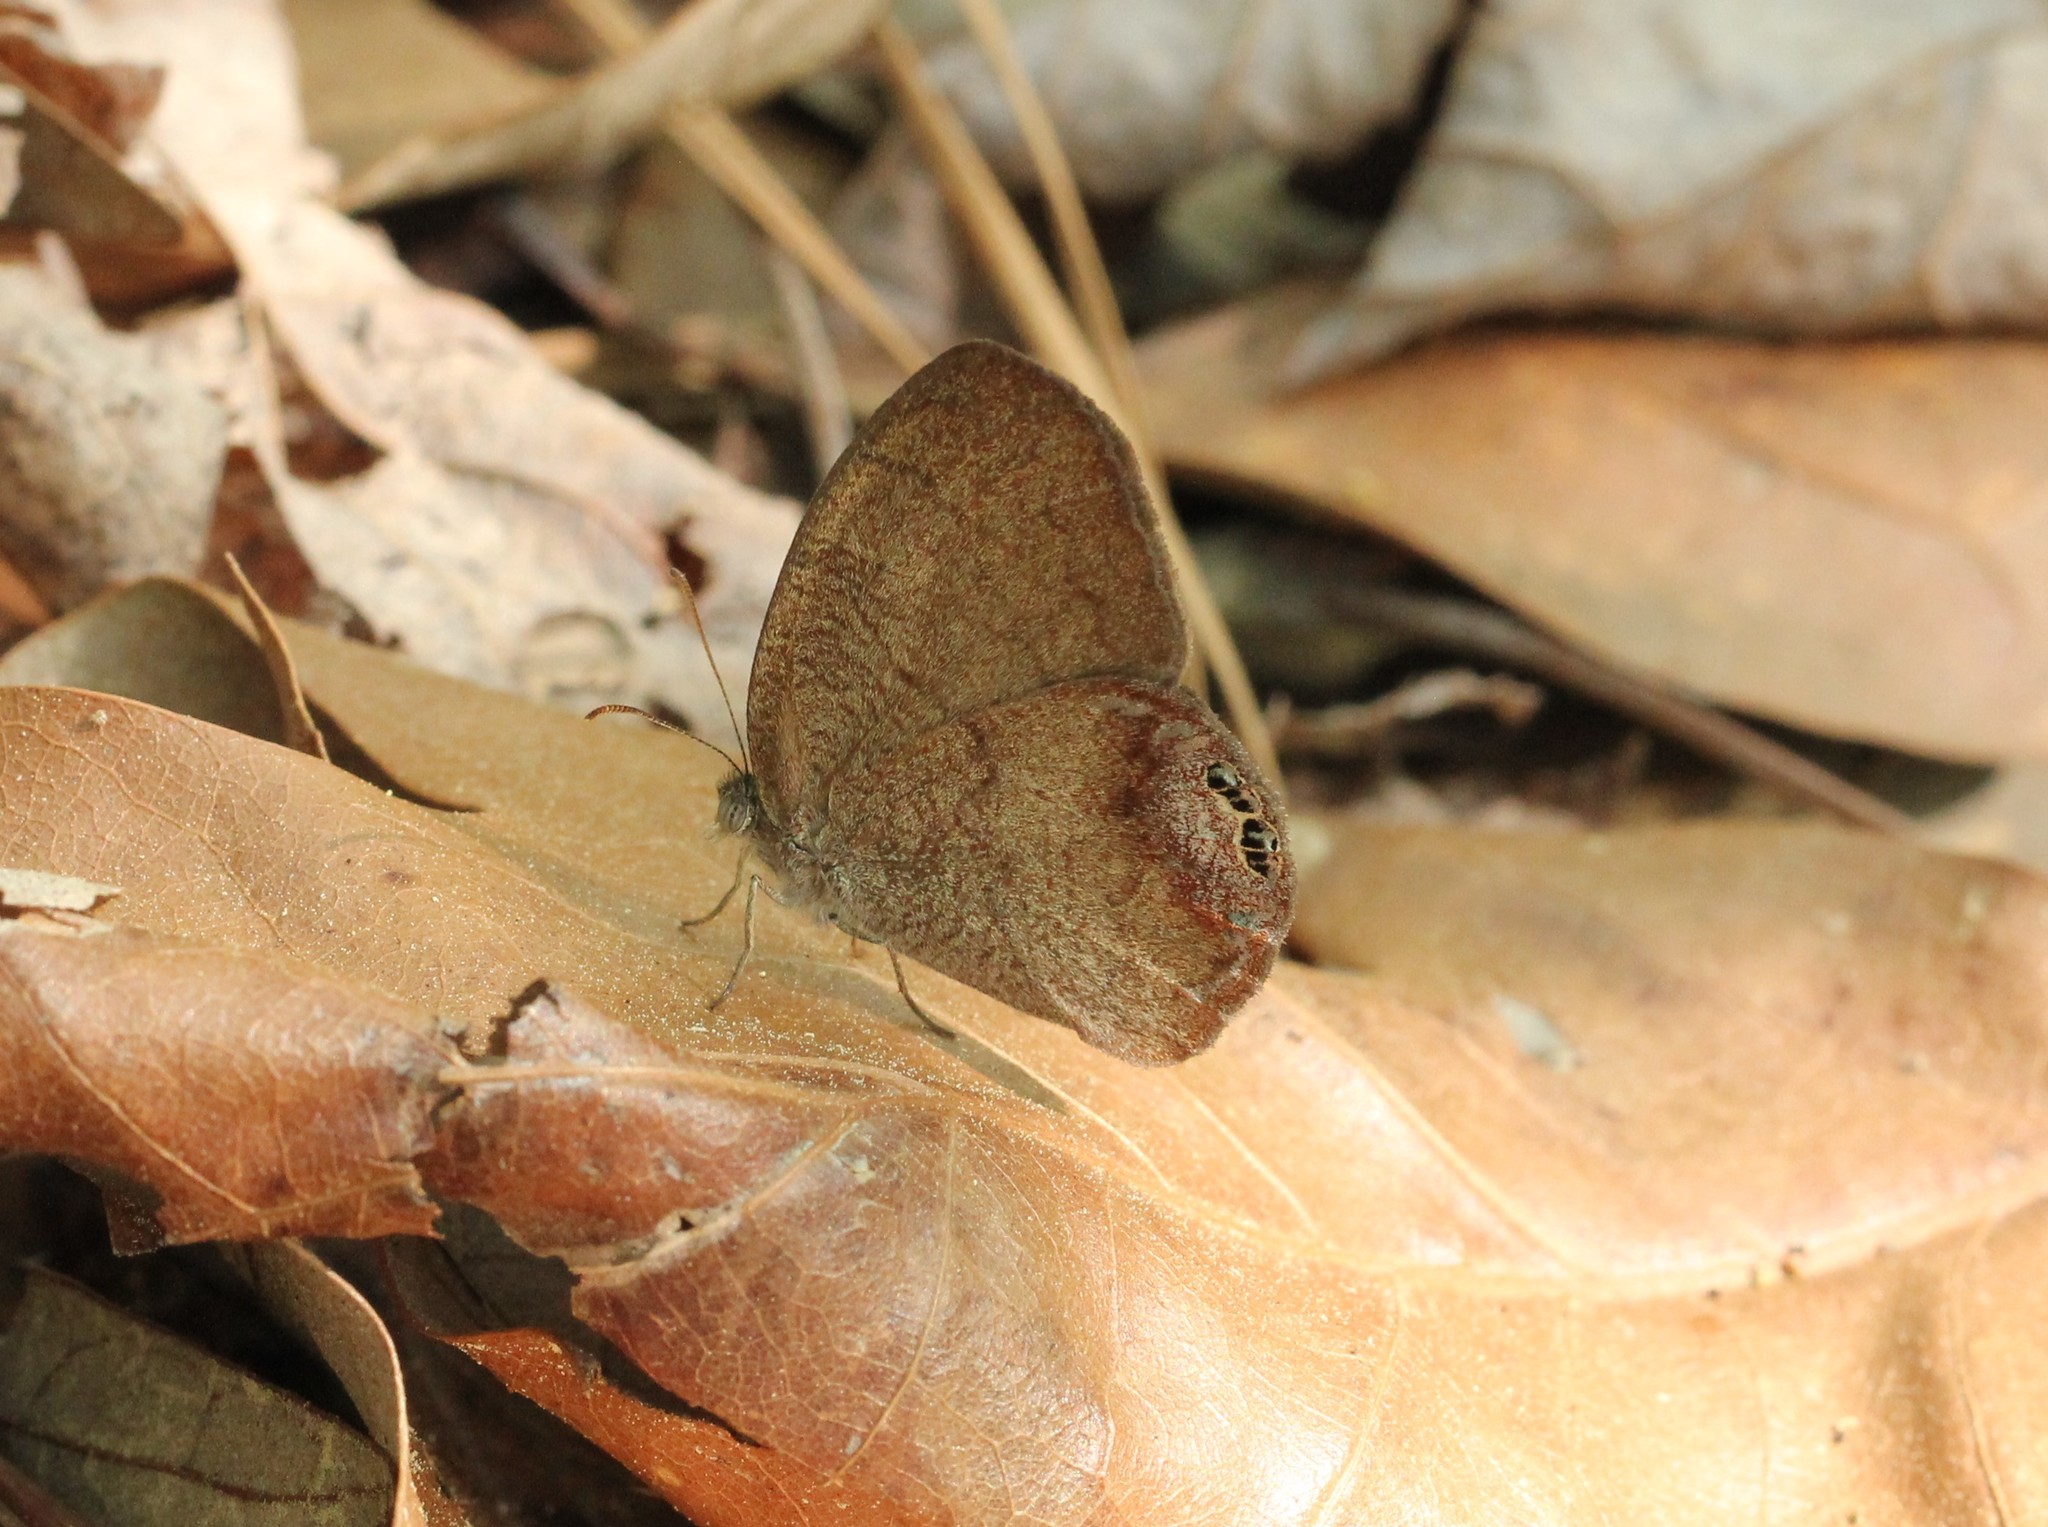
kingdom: Animalia
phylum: Arthropoda
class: Insecta
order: Lepidoptera
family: Nymphalidae
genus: Euptychia
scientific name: Euptychia cornelius
